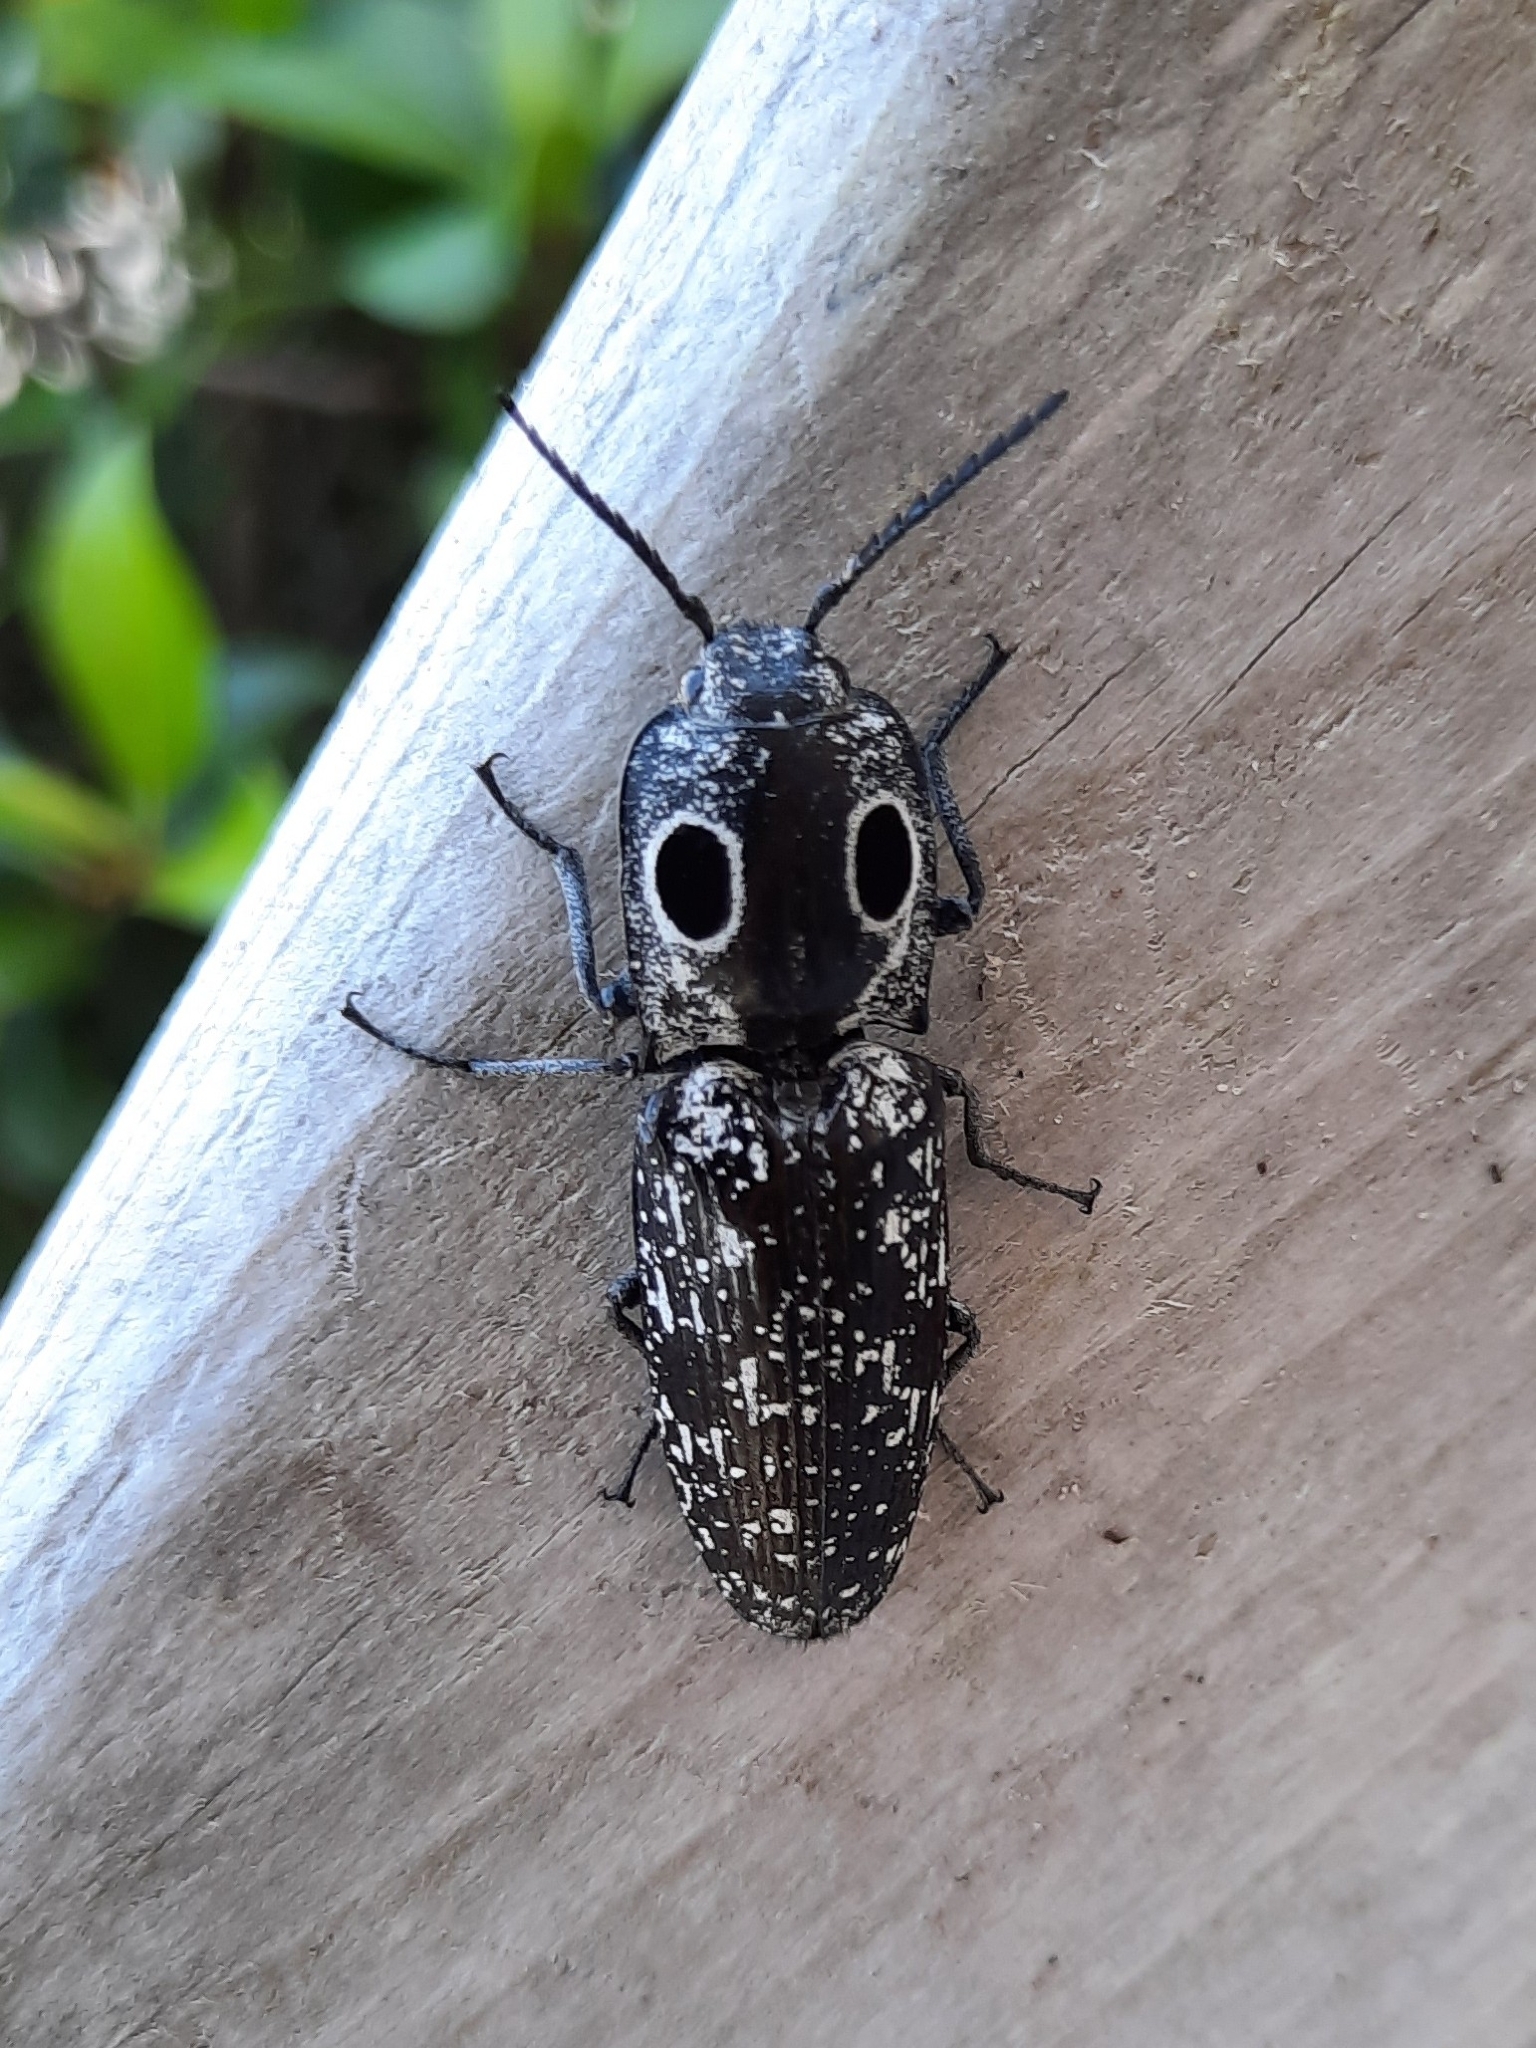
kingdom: Animalia
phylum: Arthropoda
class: Insecta
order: Coleoptera
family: Elateridae
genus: Alaus
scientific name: Alaus oculatus
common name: Eastern eyed click beetle
